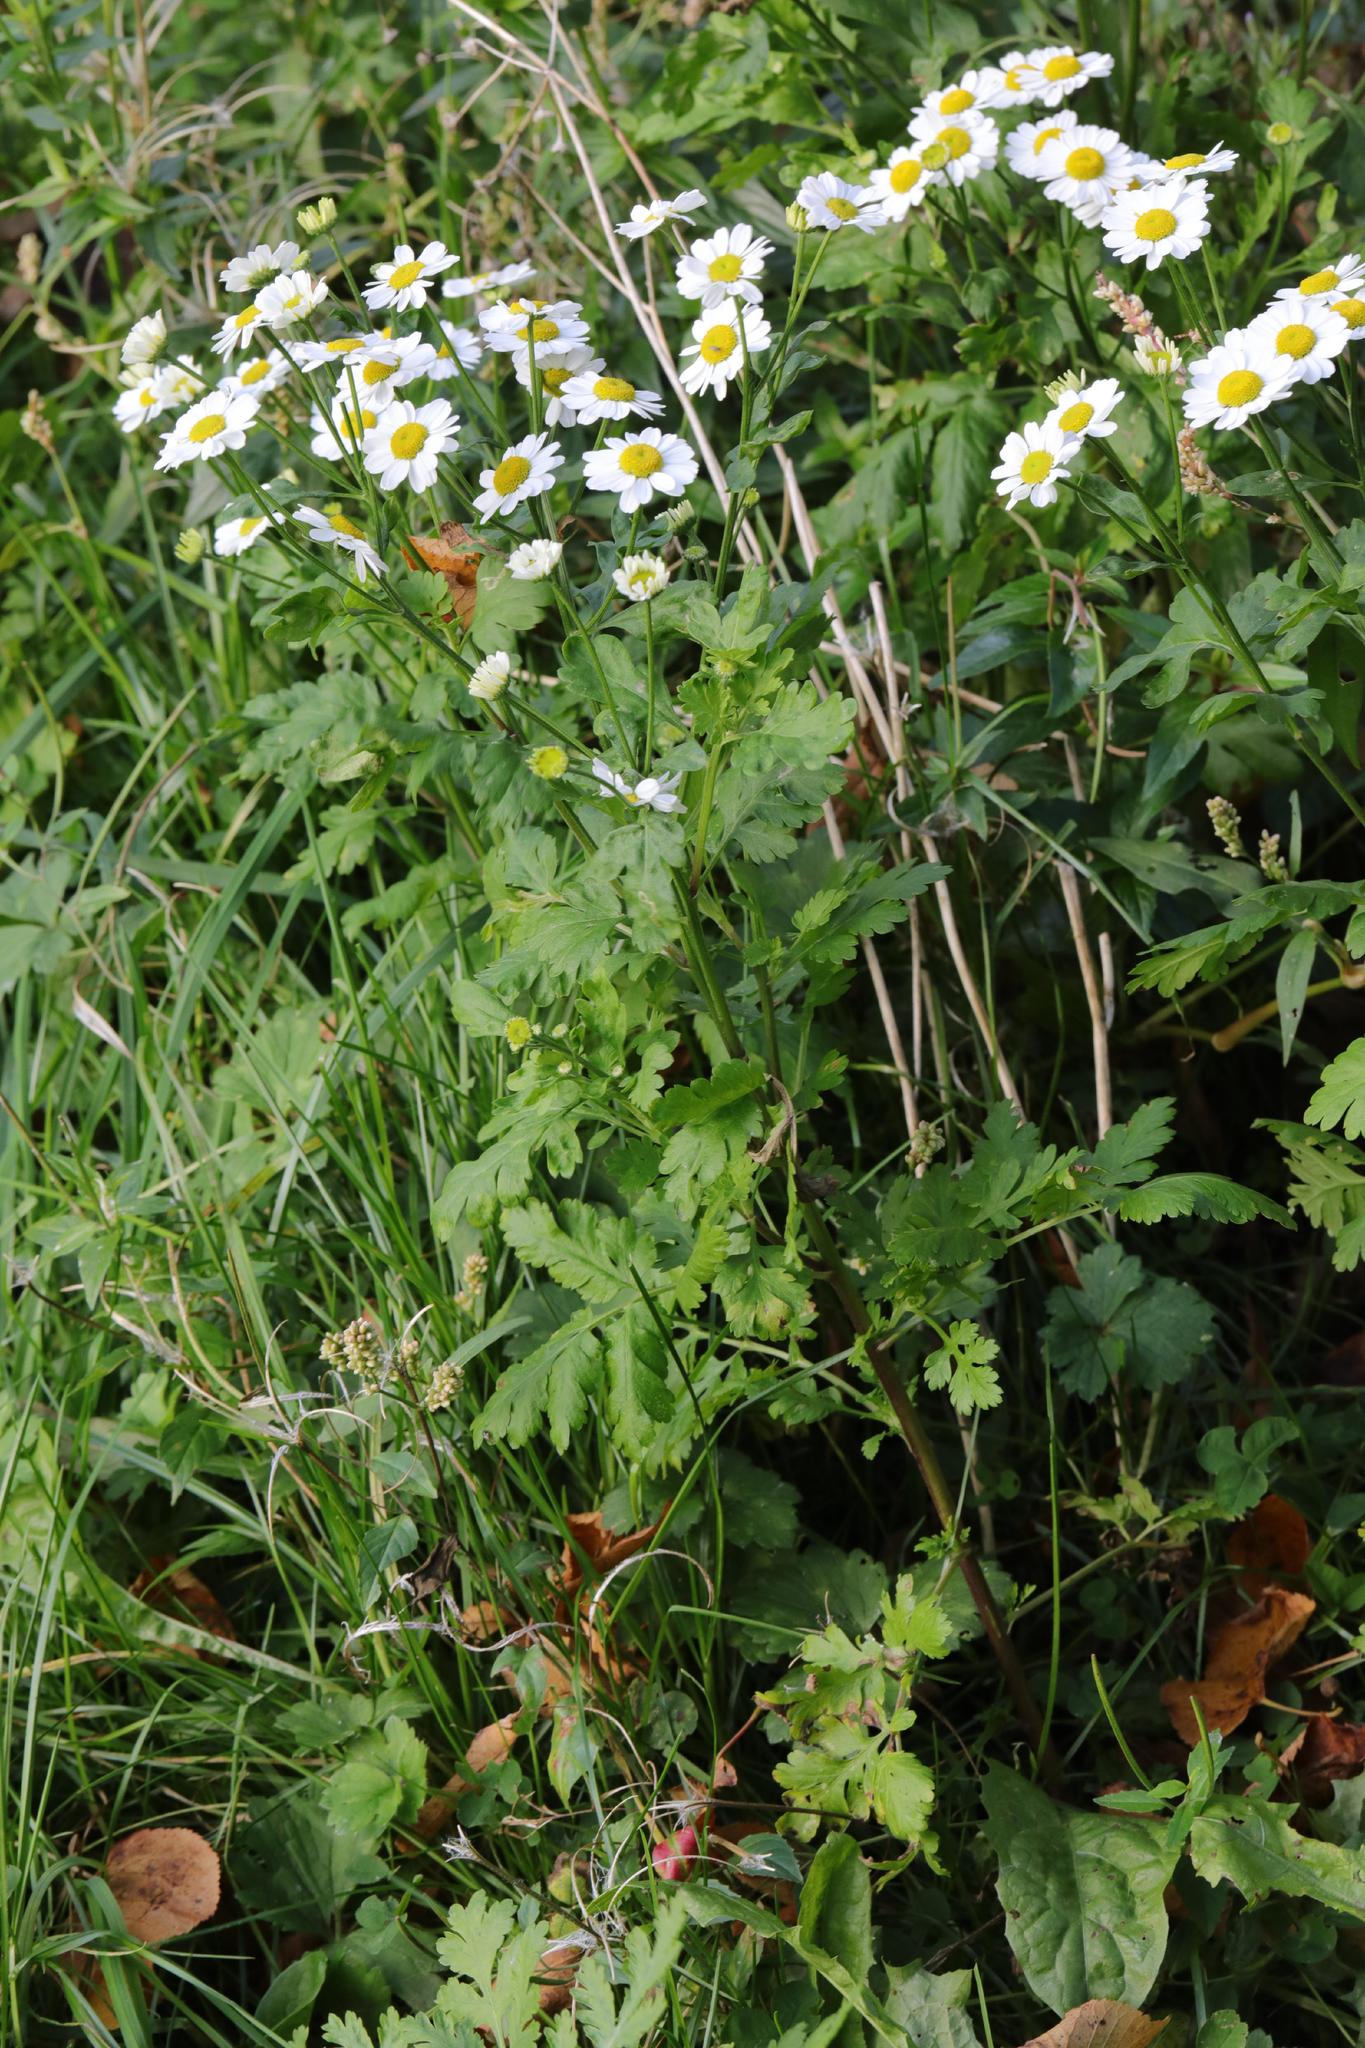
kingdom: Plantae
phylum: Tracheophyta
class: Magnoliopsida
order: Asterales
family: Asteraceae
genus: Tanacetum
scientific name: Tanacetum parthenium
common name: Feverfew
